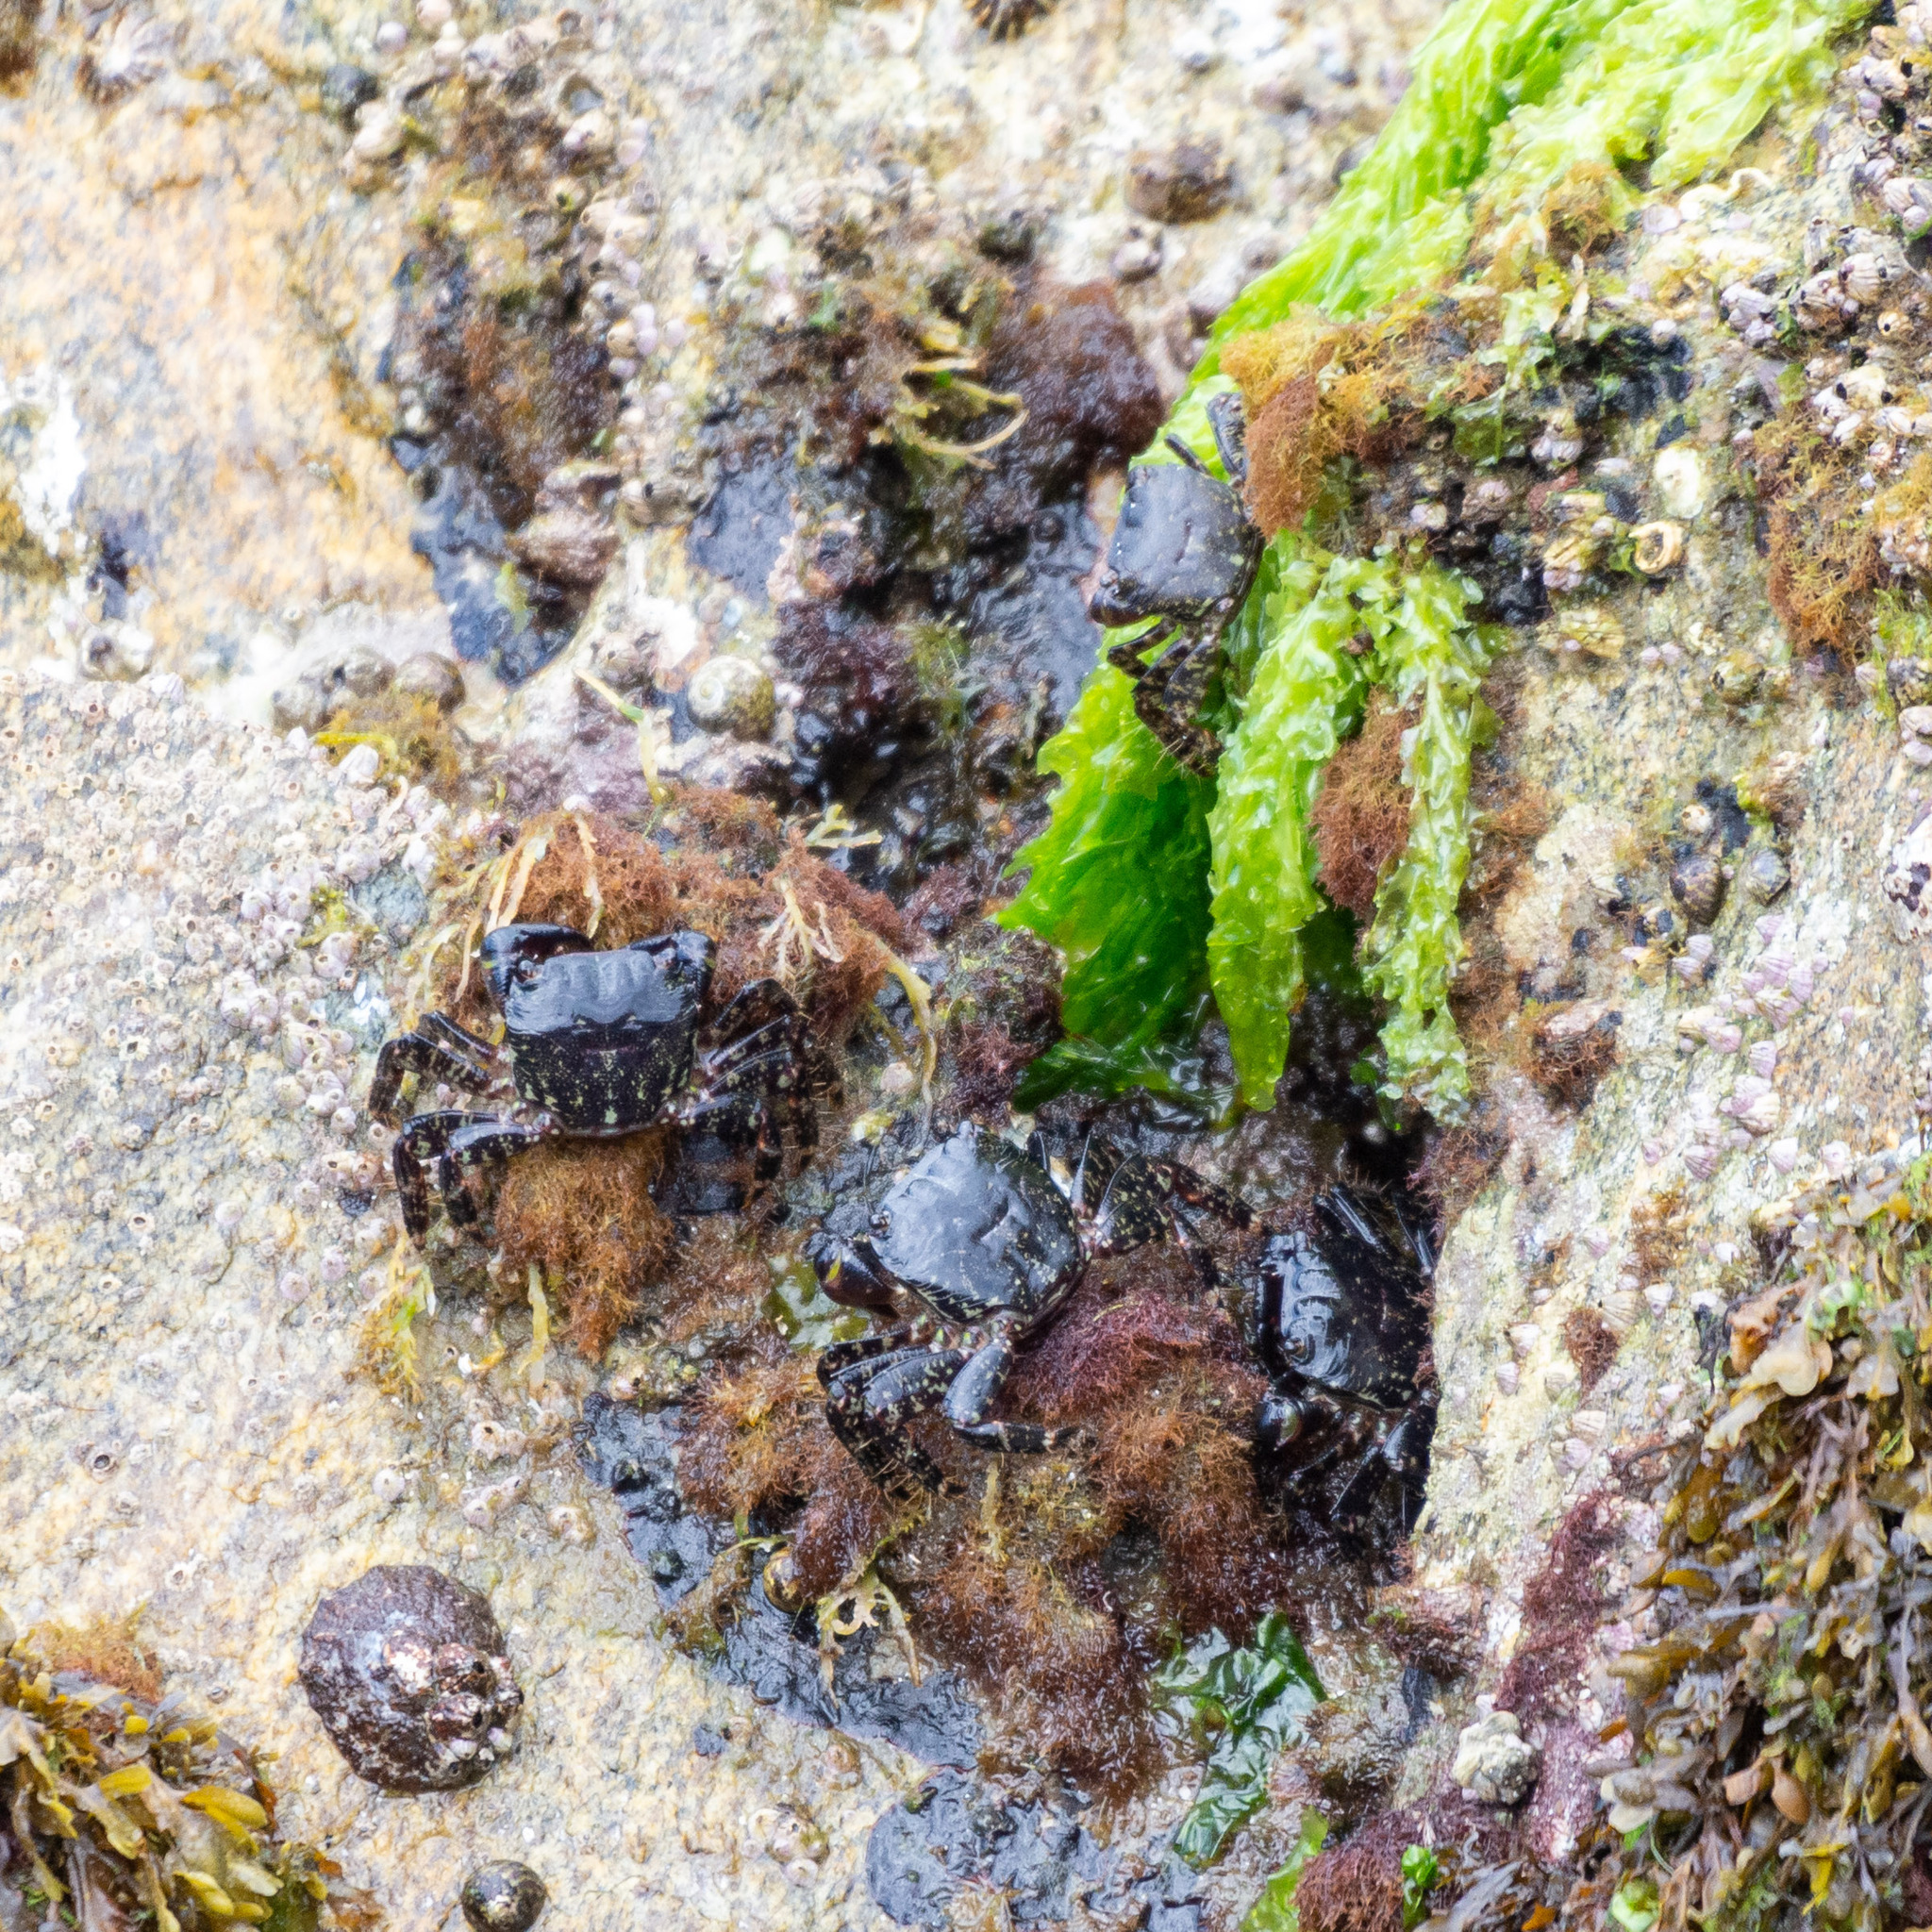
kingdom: Animalia
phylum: Arthropoda
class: Malacostraca
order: Decapoda
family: Grapsidae
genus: Pachygrapsus
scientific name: Pachygrapsus marmoratus
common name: Marbled rock crab
